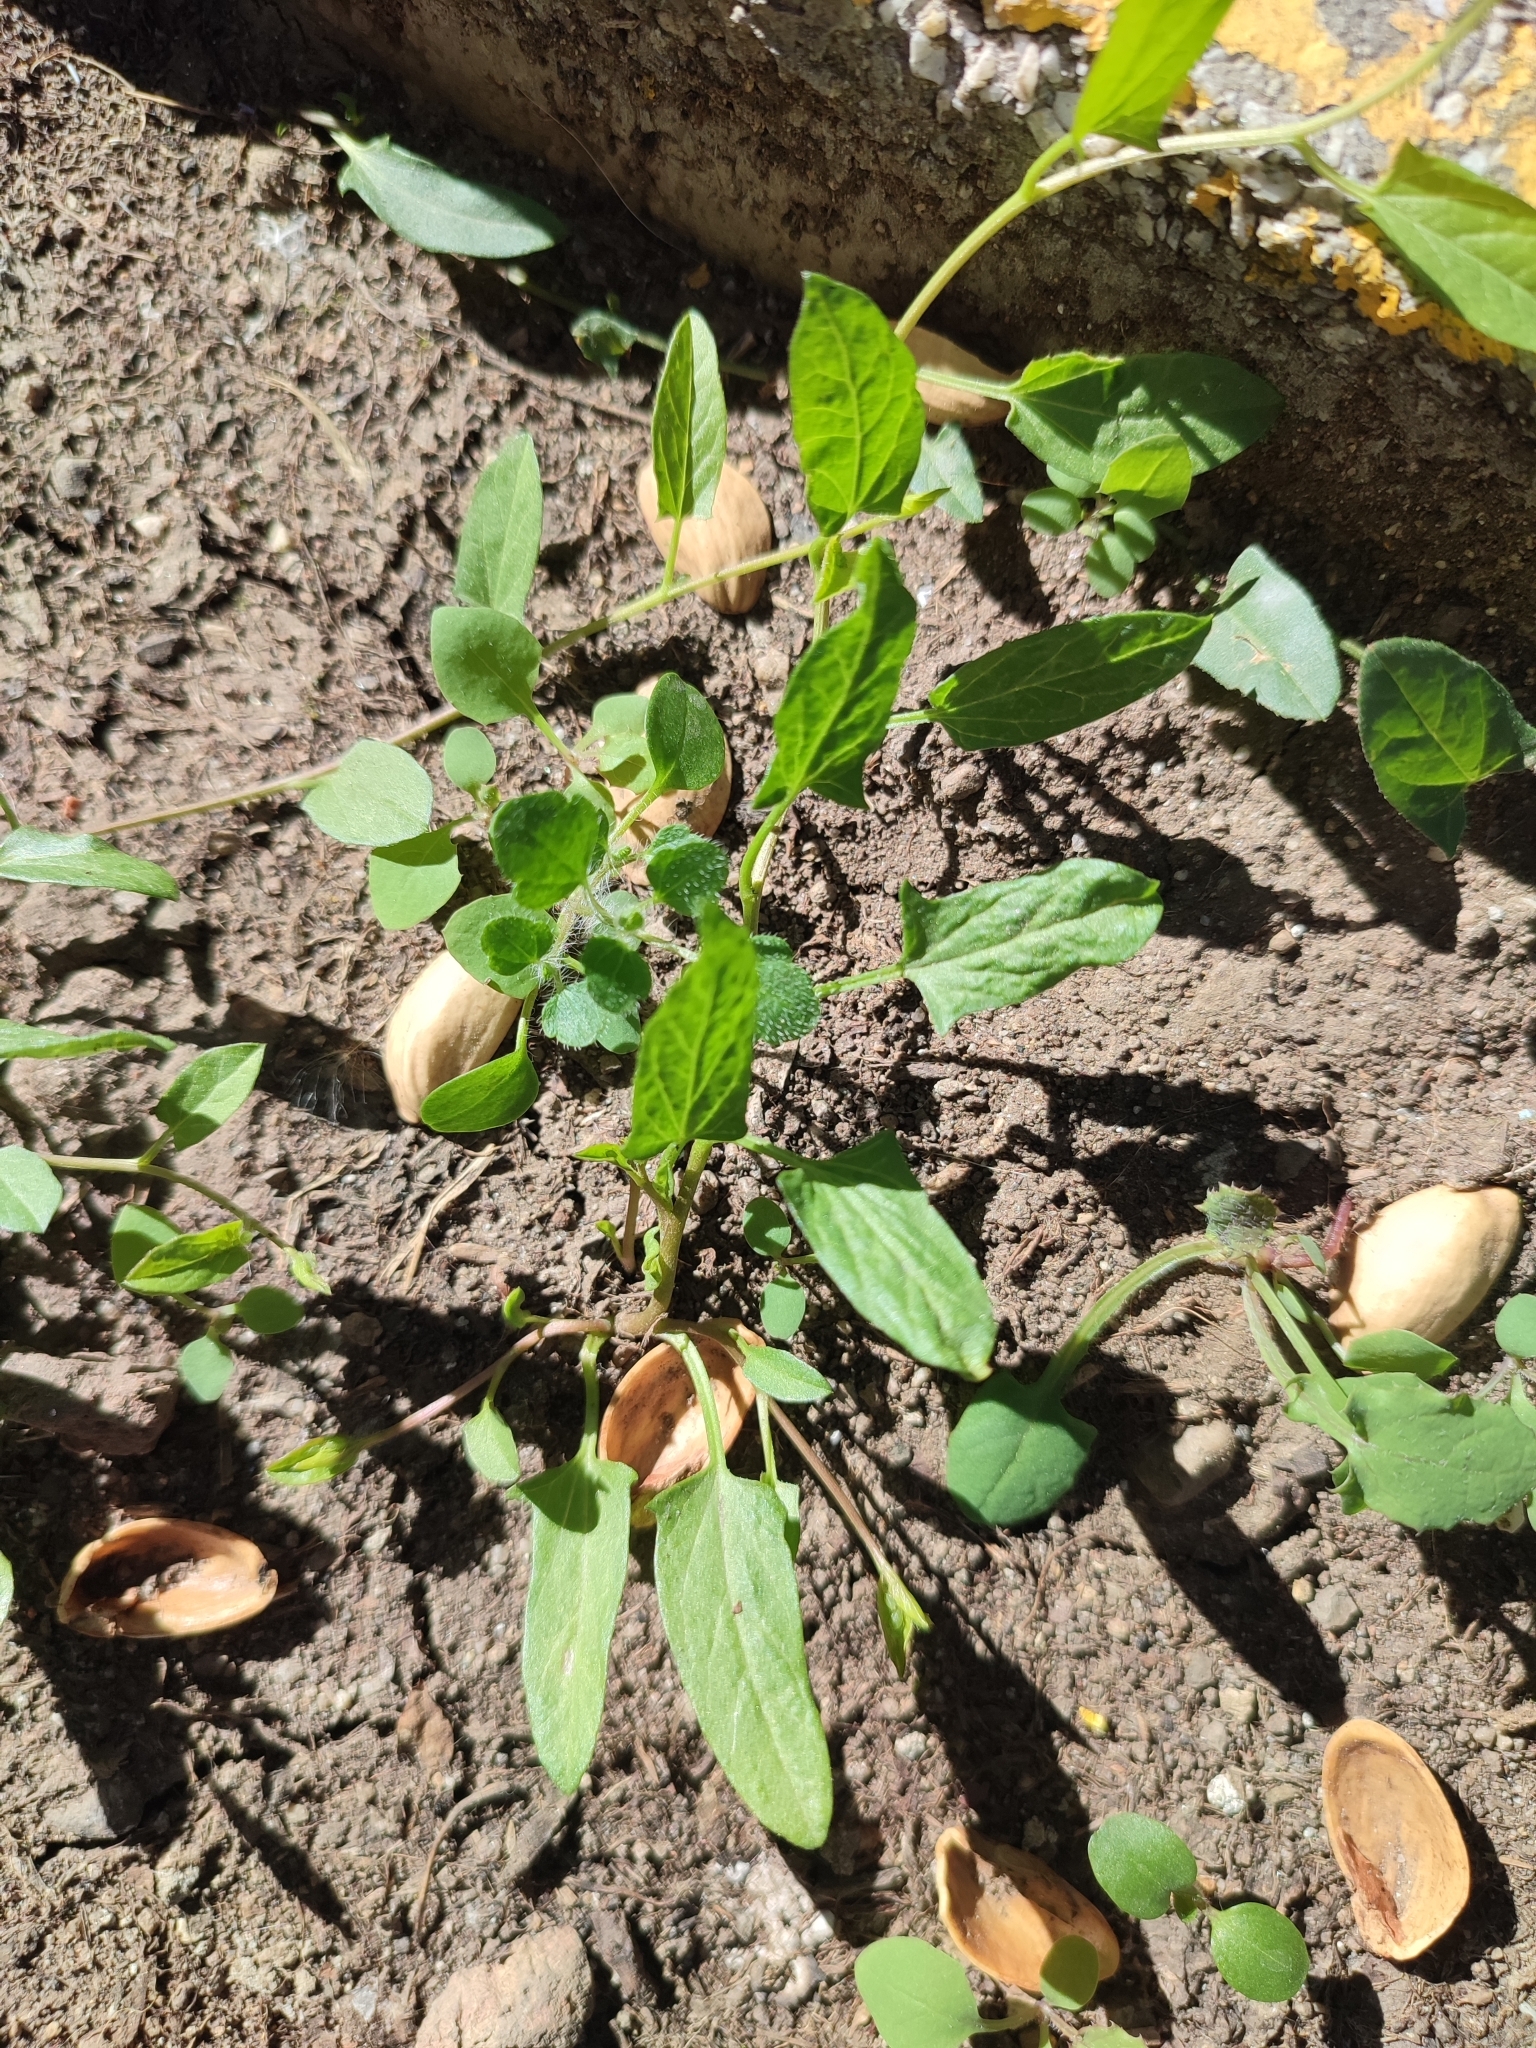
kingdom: Plantae
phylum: Tracheophyta
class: Magnoliopsida
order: Solanales
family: Convolvulaceae
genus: Convolvulus
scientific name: Convolvulus arvensis
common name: Field bindweed
